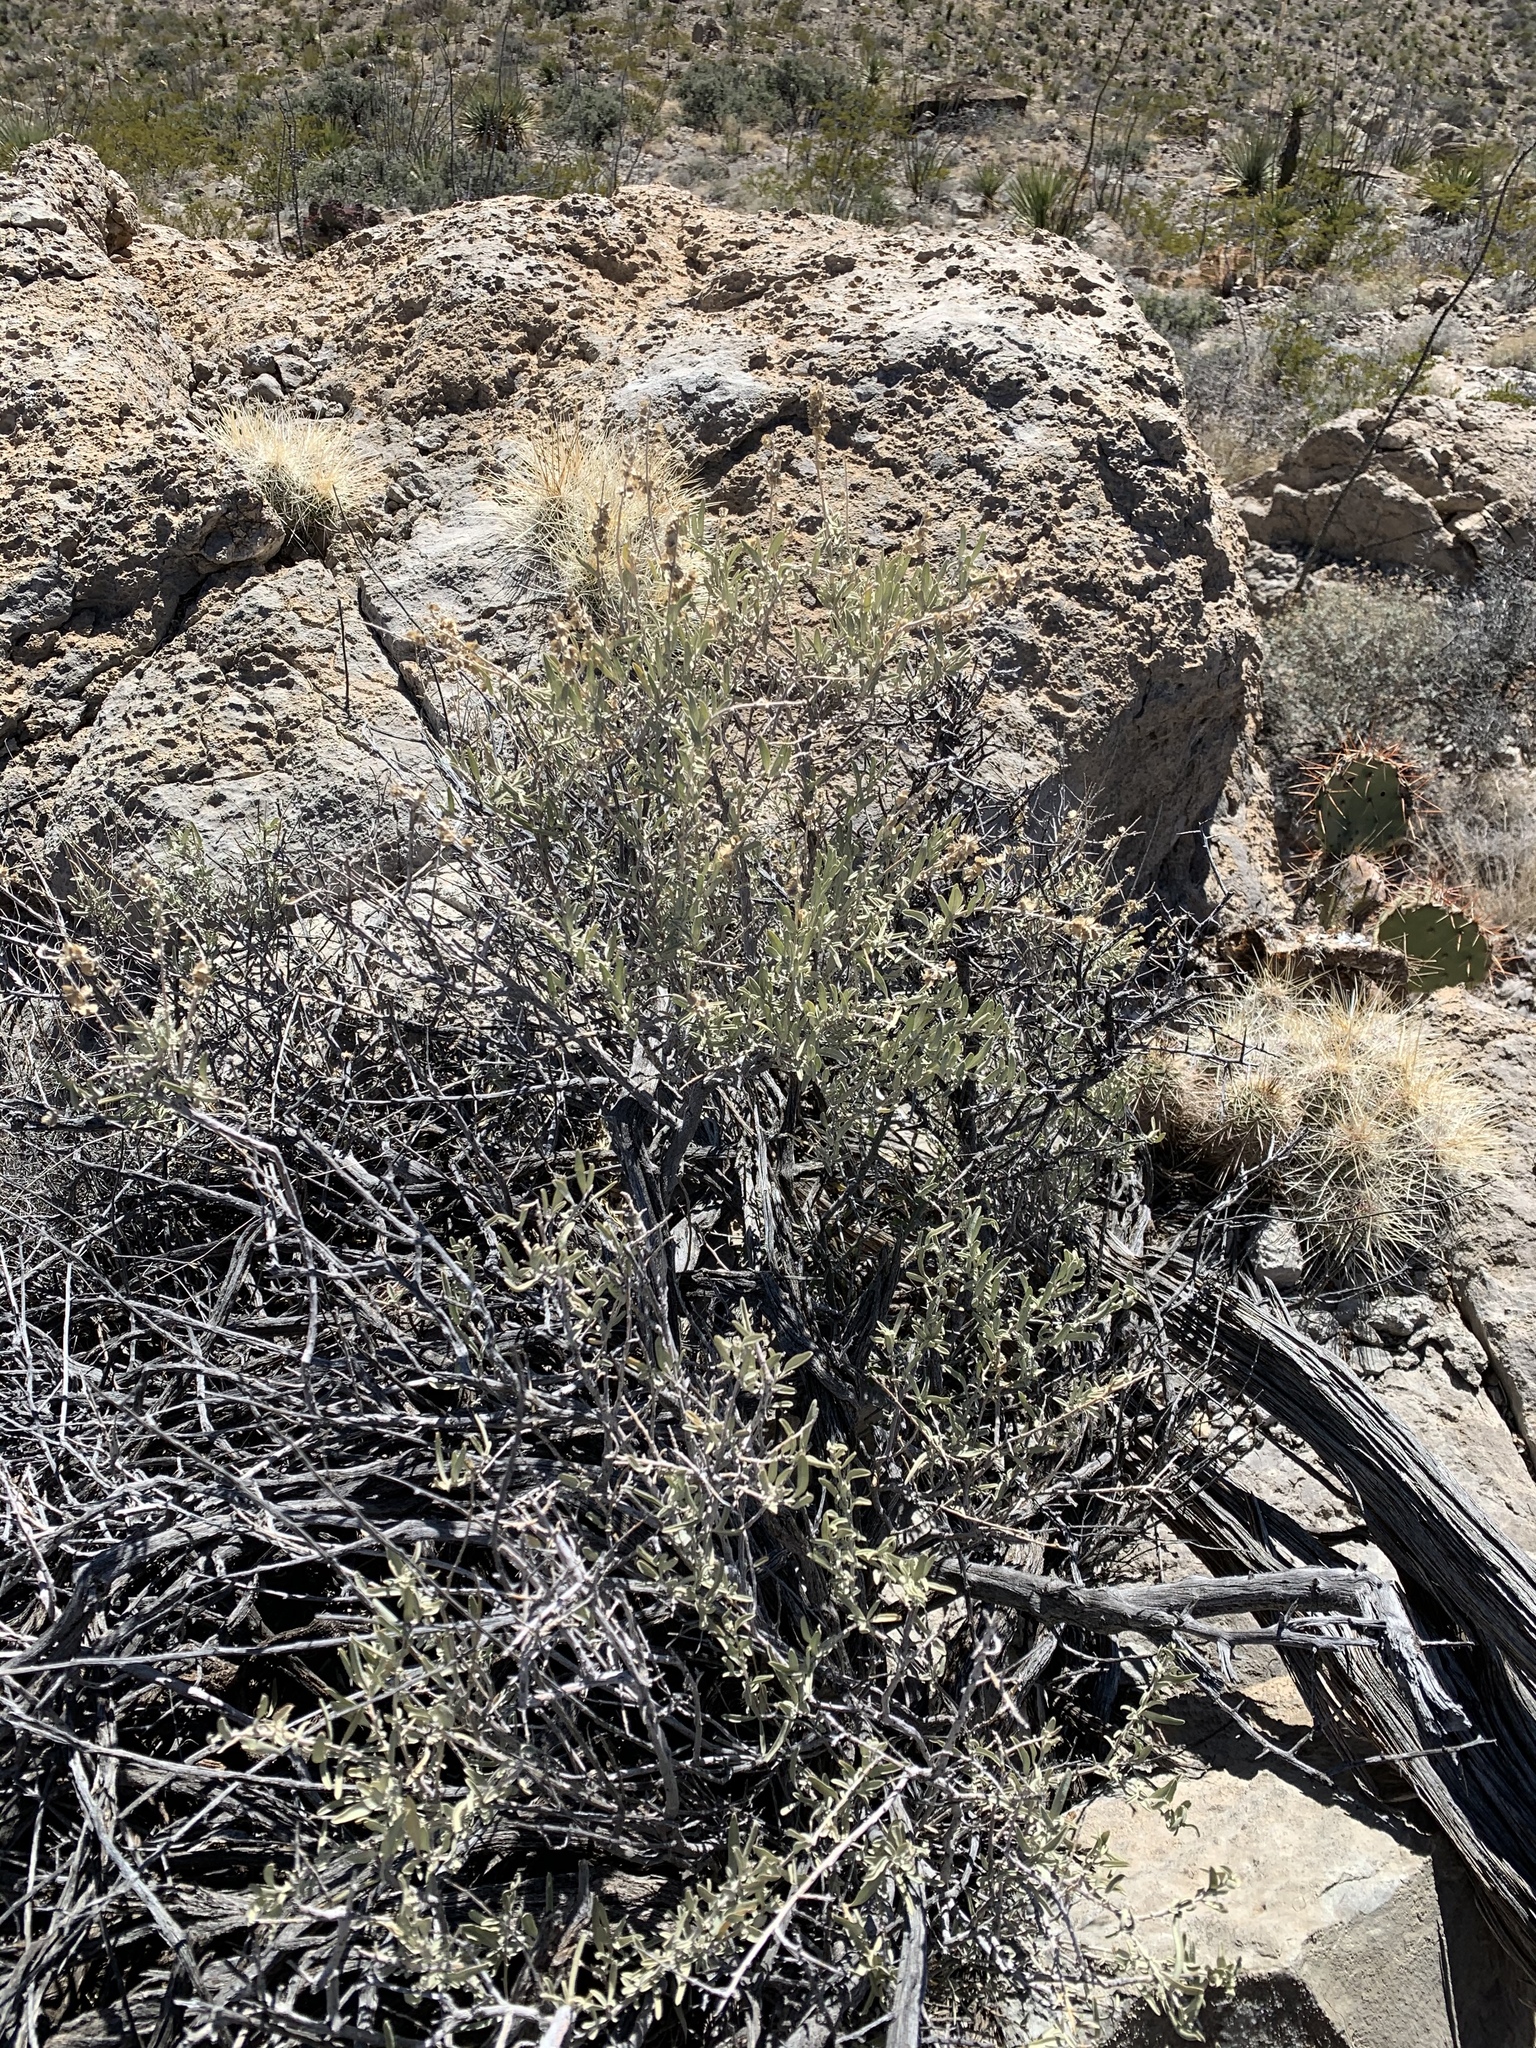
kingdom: Plantae
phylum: Tracheophyta
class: Magnoliopsida
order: Caryophyllales
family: Amaranthaceae
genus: Atriplex
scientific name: Atriplex canescens
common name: Four-wing saltbush
